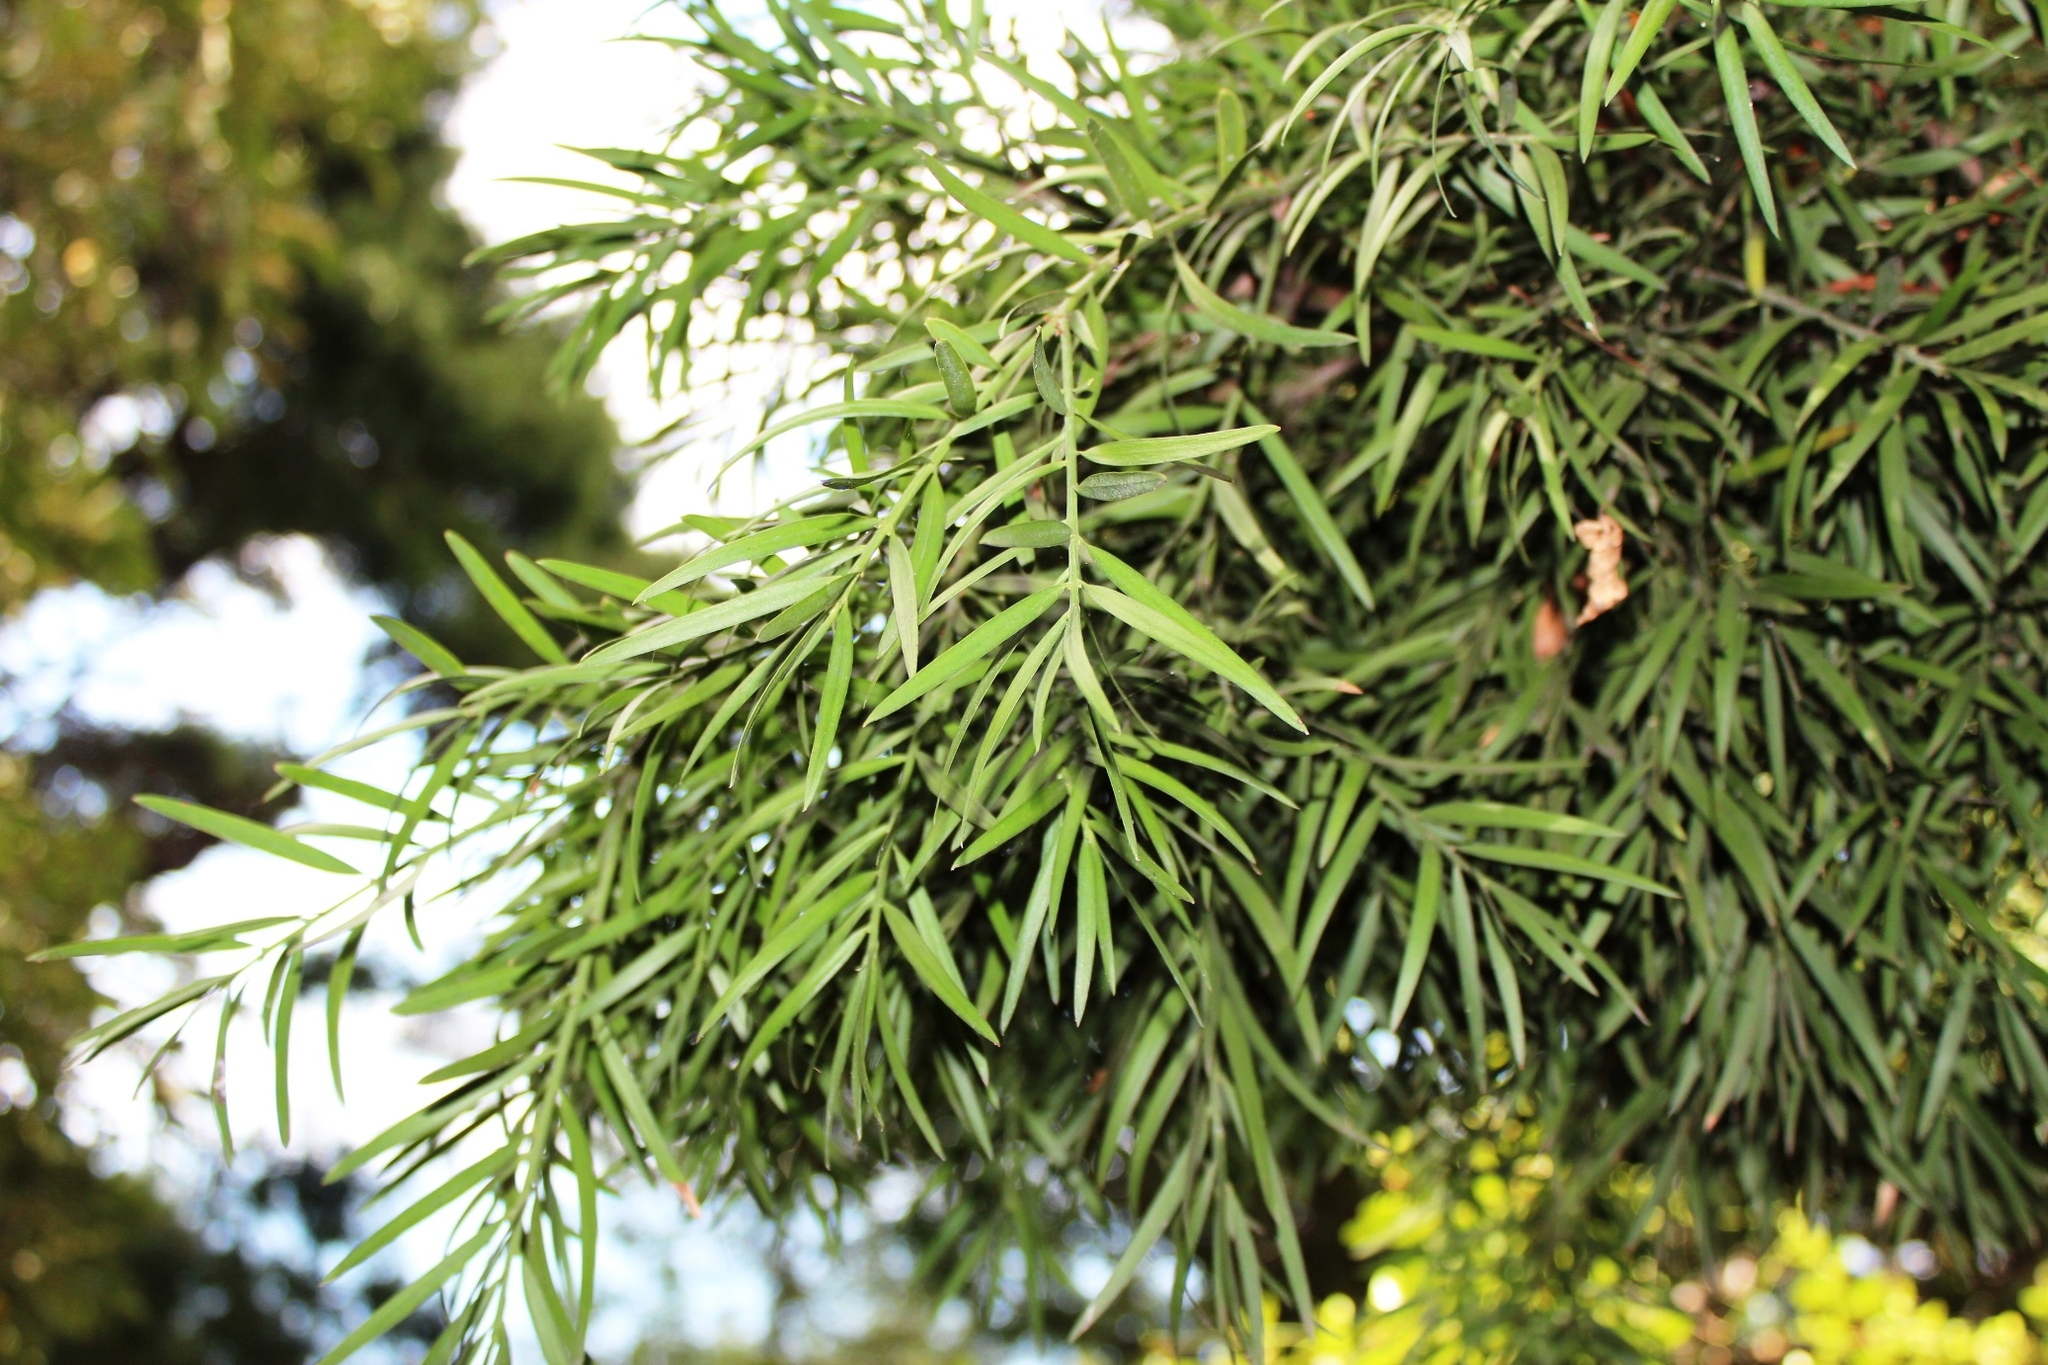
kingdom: Plantae
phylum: Tracheophyta
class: Pinopsida
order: Pinales
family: Podocarpaceae
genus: Afrocarpus
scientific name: Afrocarpus falcatus
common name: Bastard yellowwood
